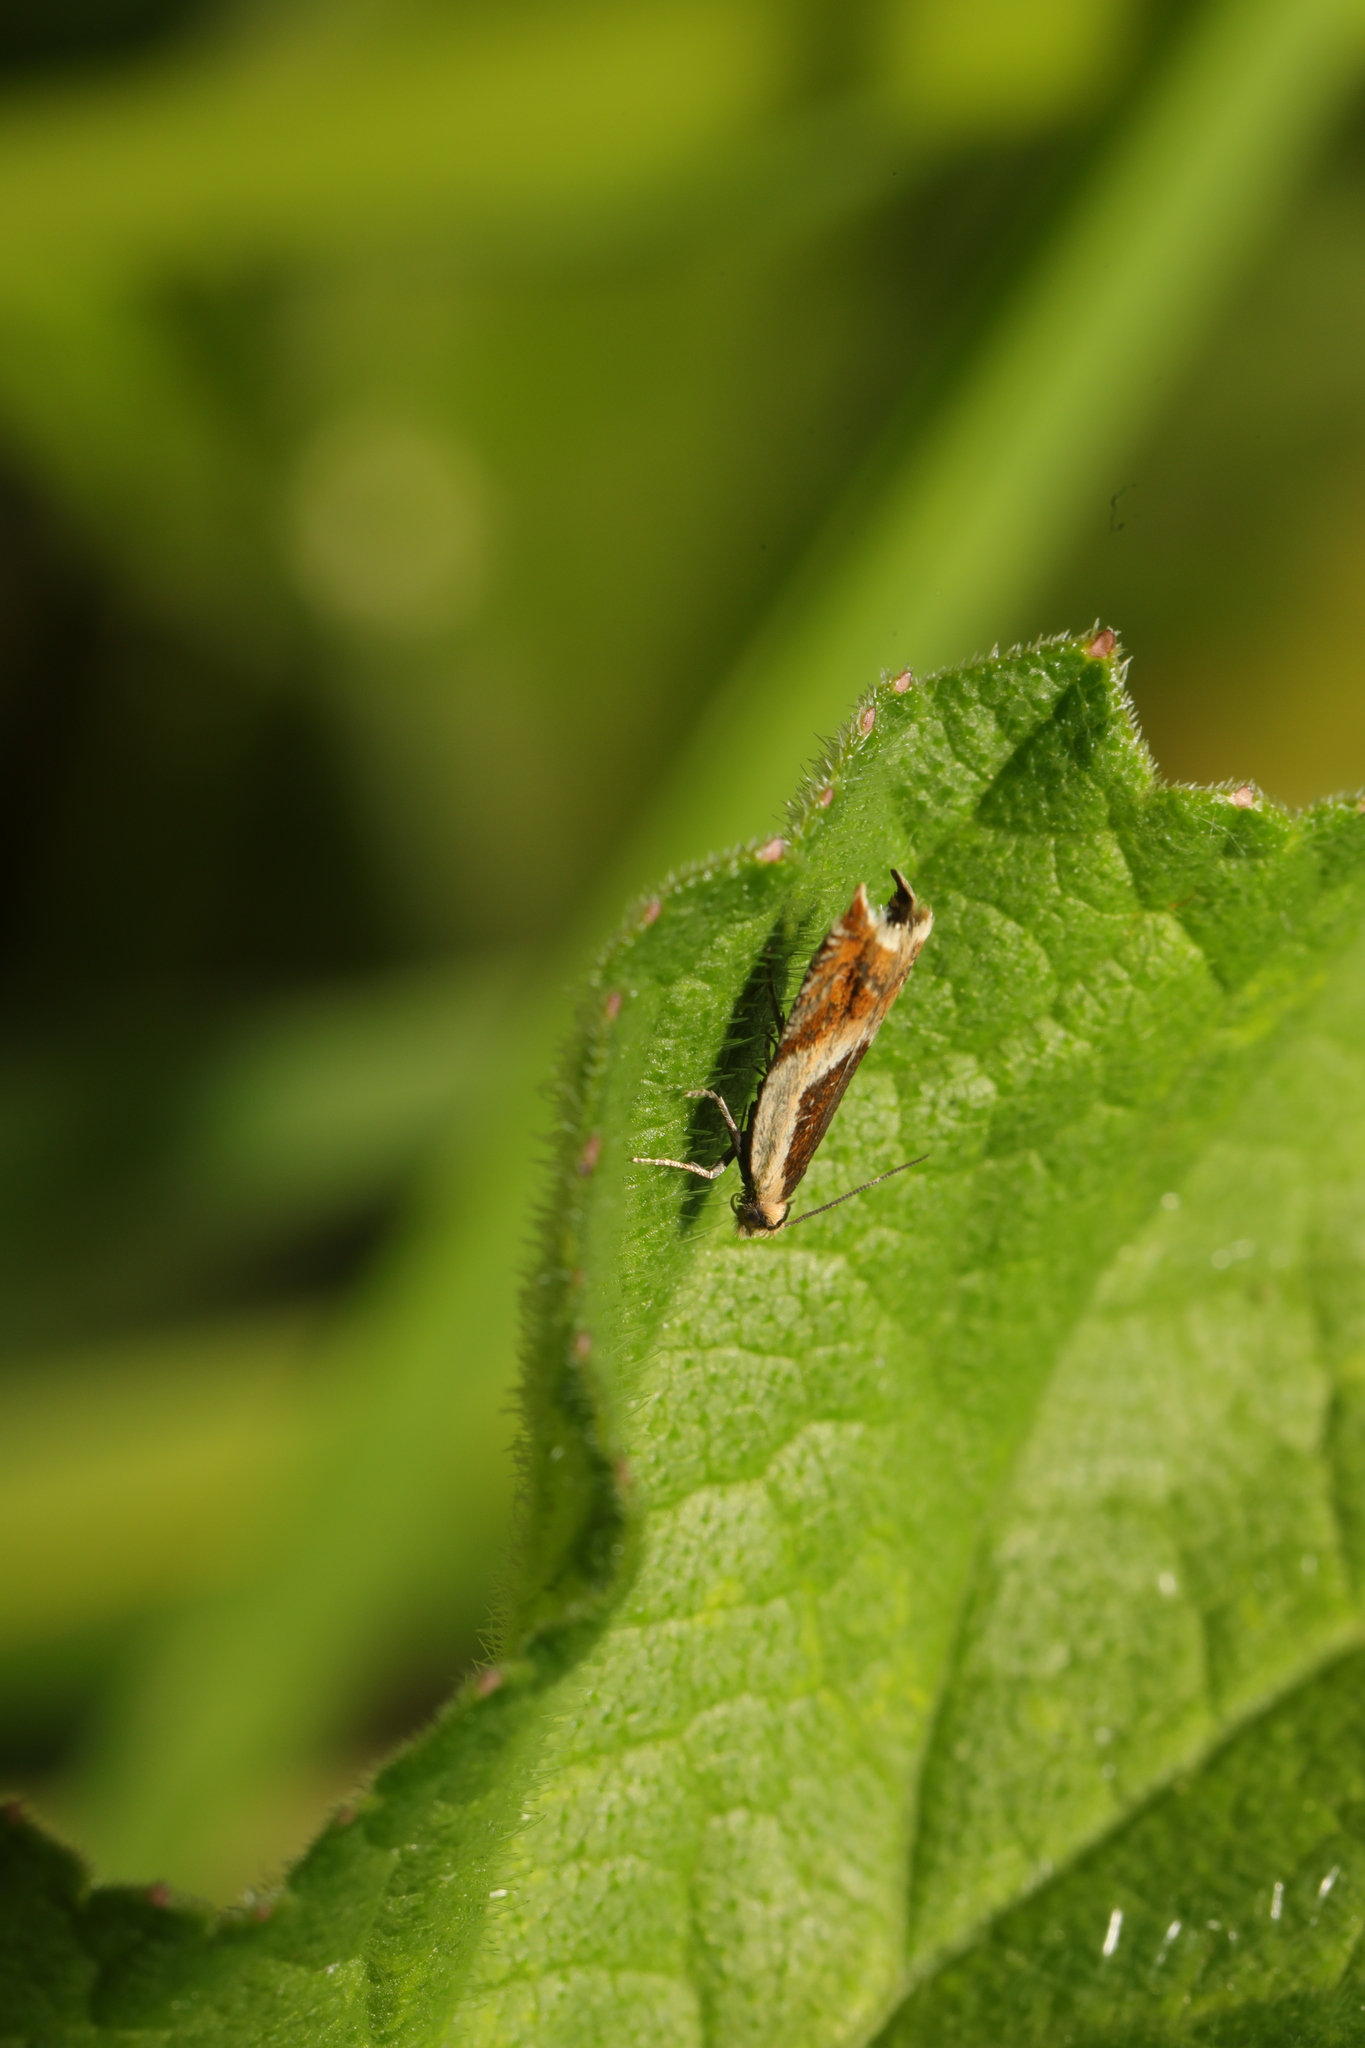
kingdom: Animalia
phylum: Arthropoda
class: Insecta
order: Lepidoptera
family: Tortricidae
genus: Ancylis
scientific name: Ancylis badiana
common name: Common roller
